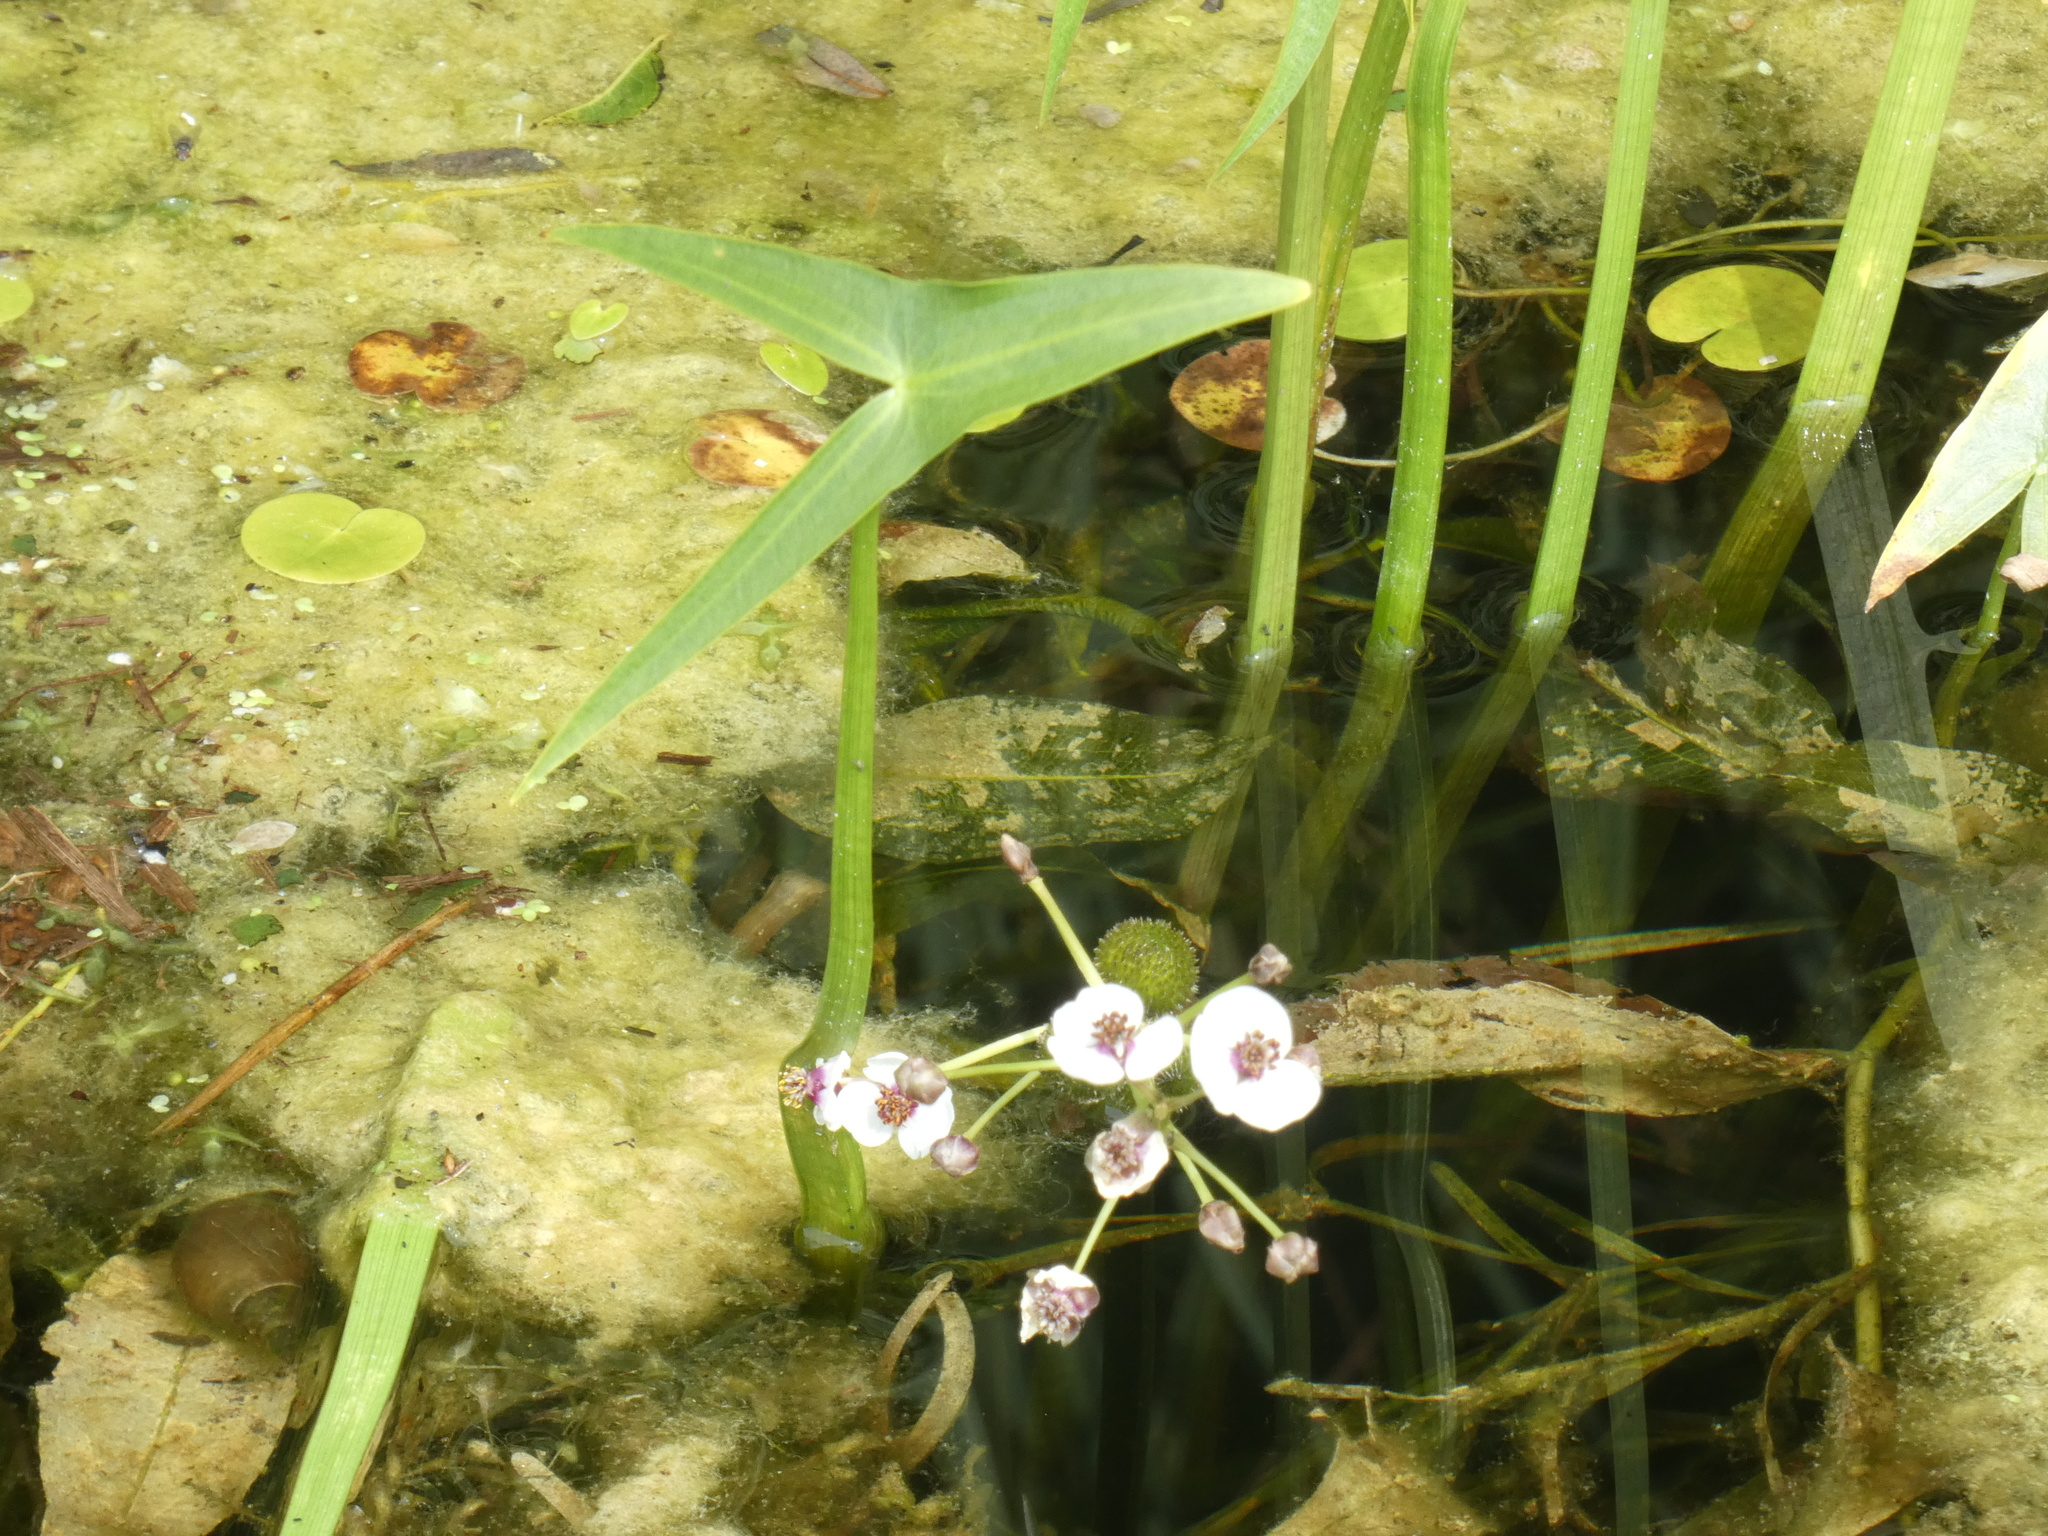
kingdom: Plantae
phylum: Tracheophyta
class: Liliopsida
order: Alismatales
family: Alismataceae
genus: Sagittaria
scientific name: Sagittaria sagittifolia
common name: Arrowhead
